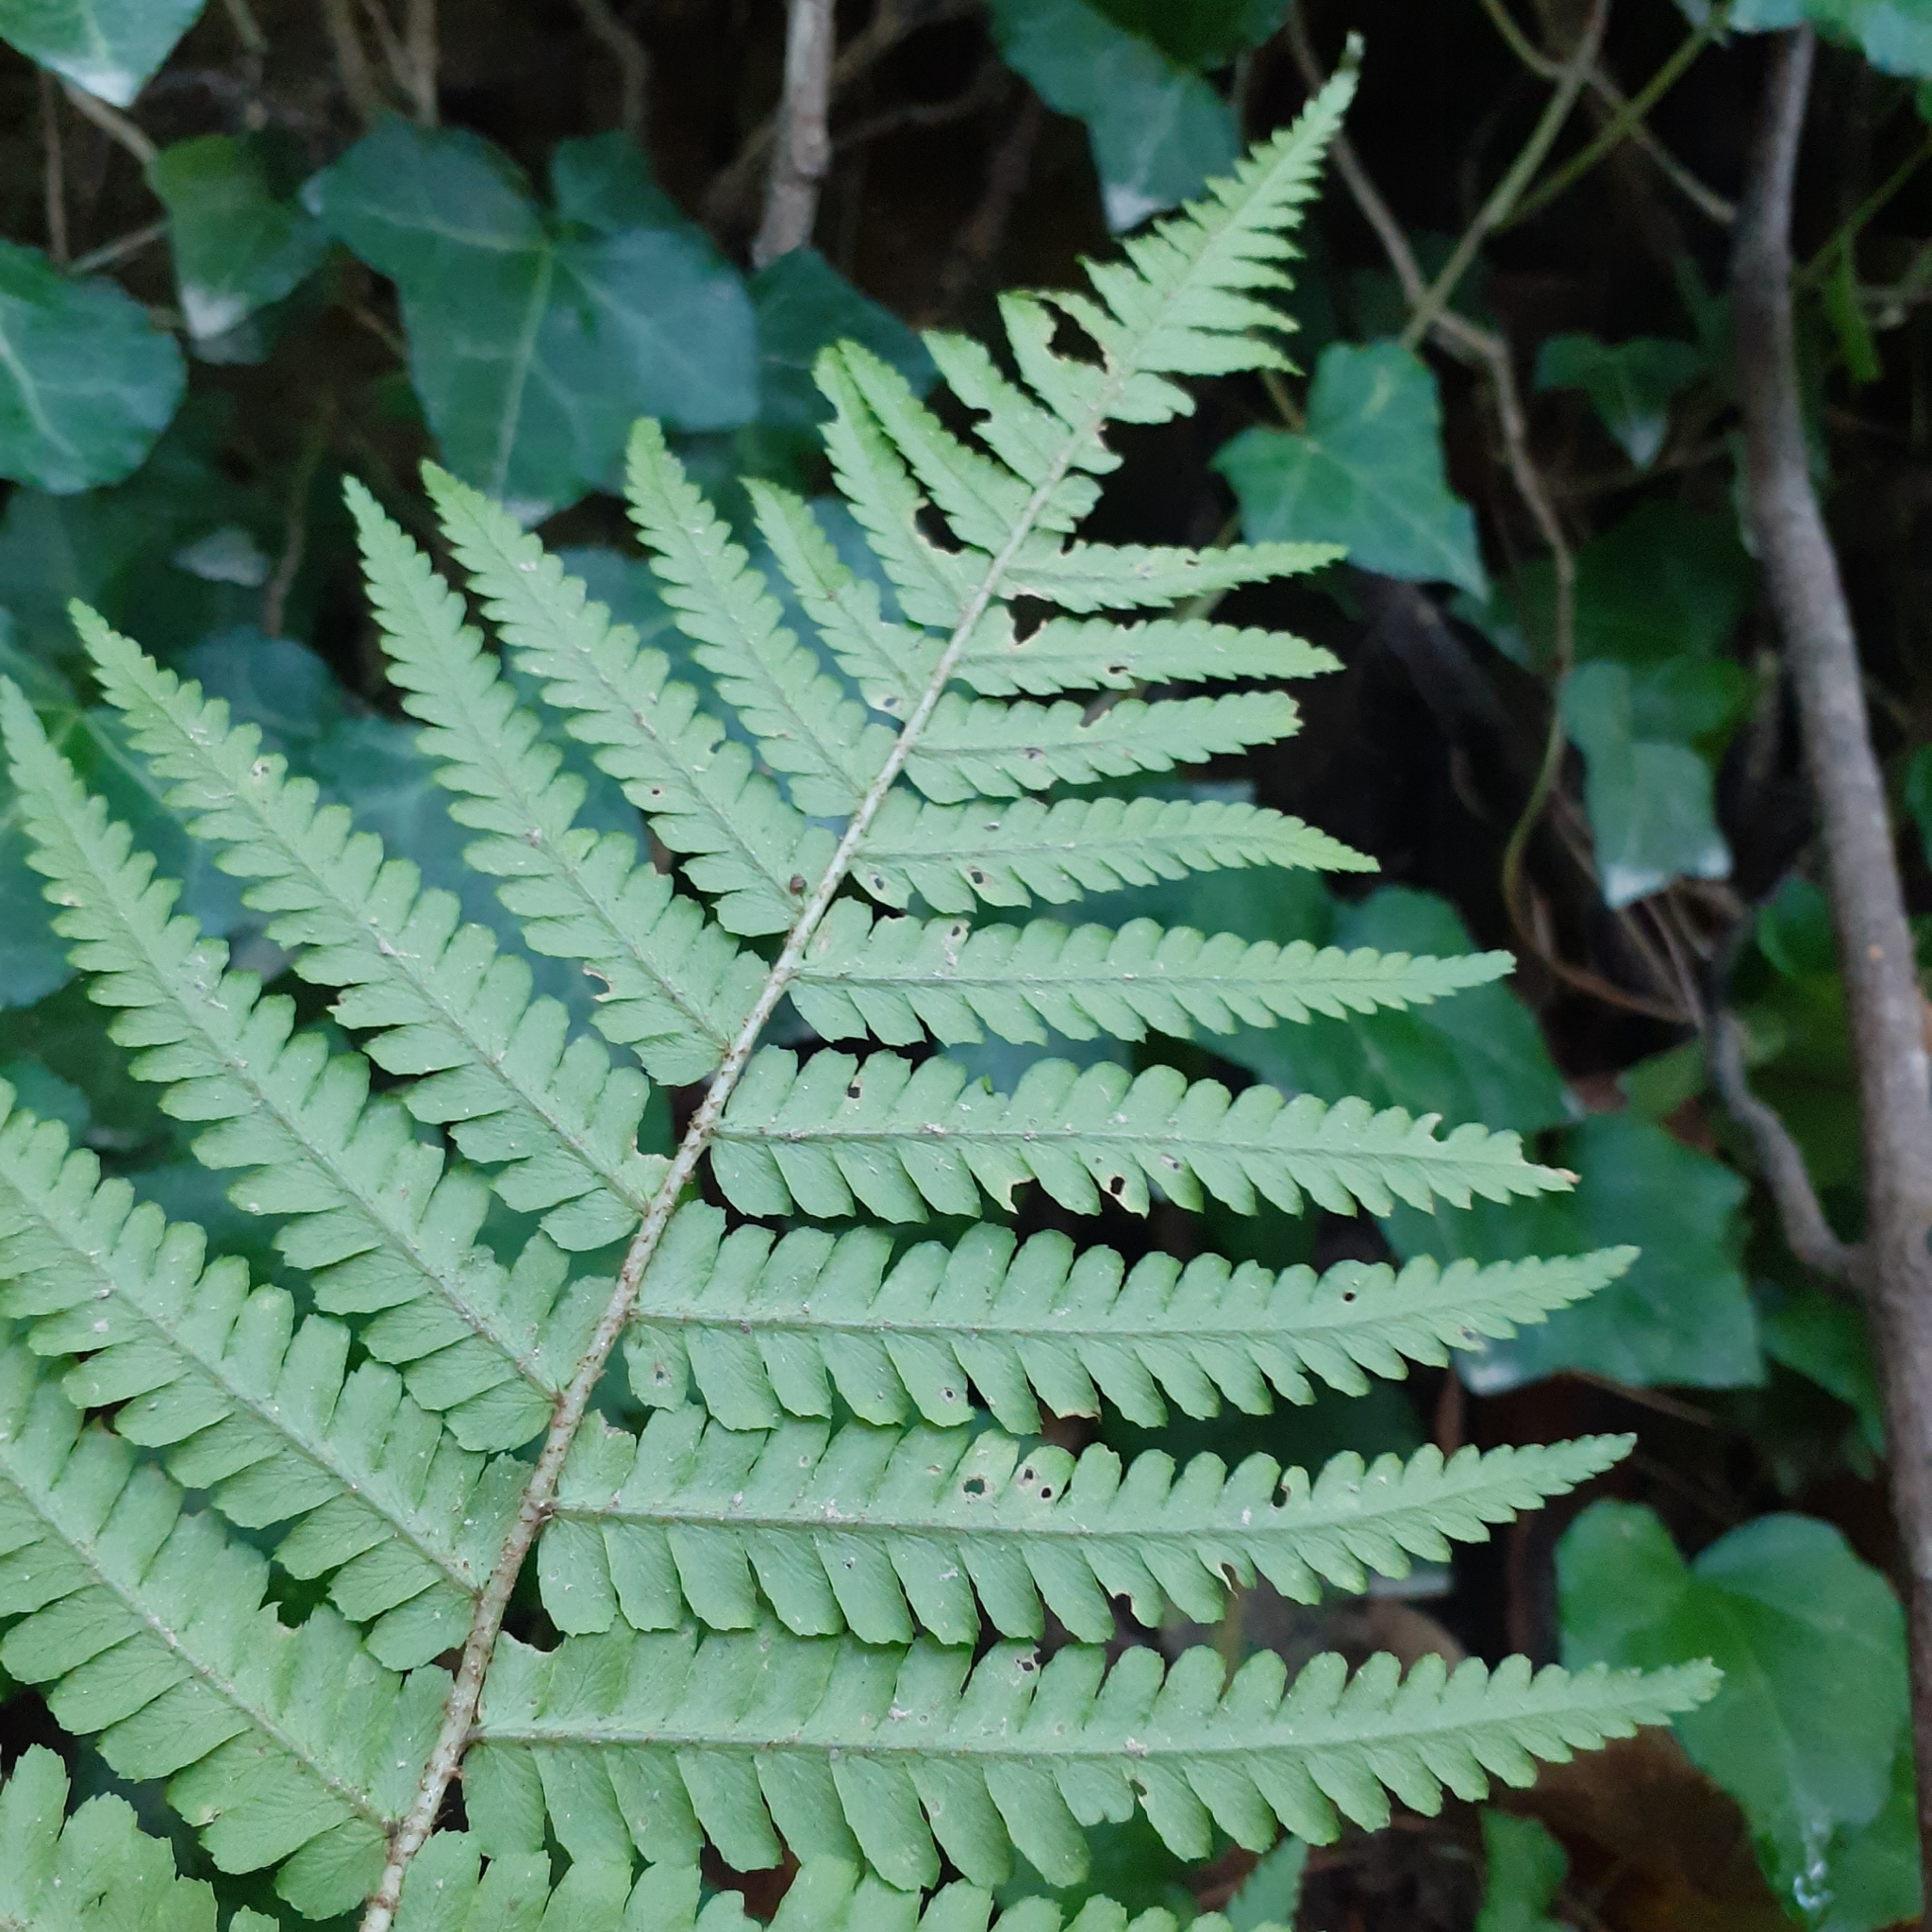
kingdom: Plantae
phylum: Tracheophyta
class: Polypodiopsida
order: Polypodiales
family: Dryopteridaceae
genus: Dryopteris
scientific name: Dryopteris filix-mas
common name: Male fern
